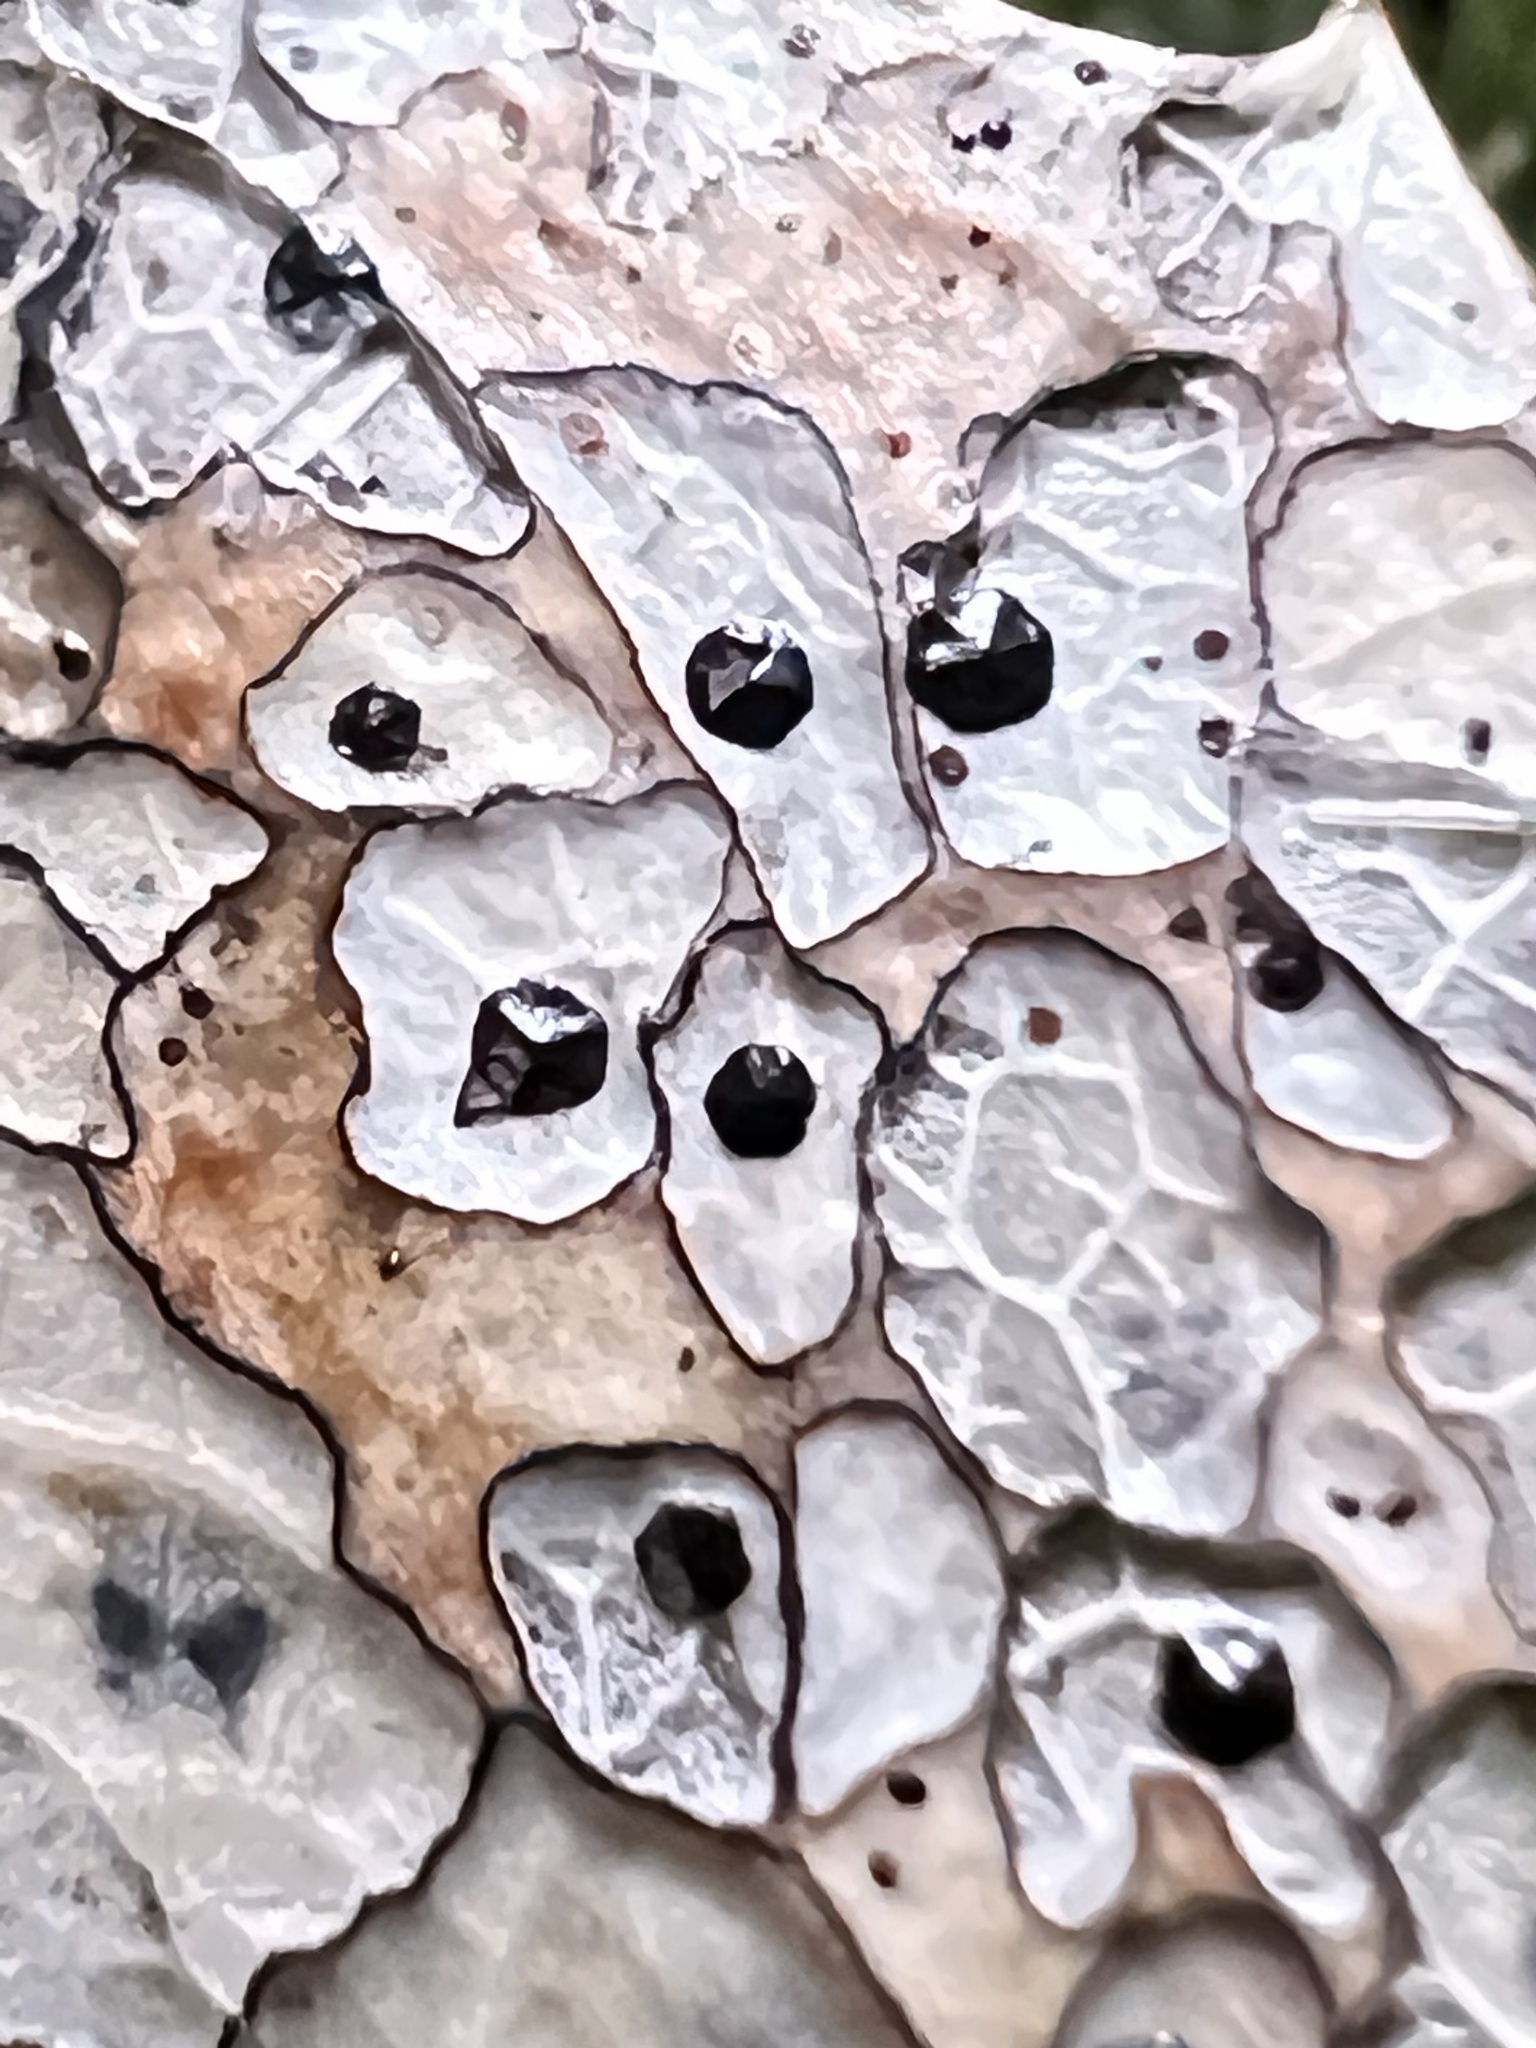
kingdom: Fungi
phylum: Ascomycota
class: Leotiomycetes
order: Rhytismatales
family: Rhytismataceae
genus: Coccomyces
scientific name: Coccomyces dentatus
